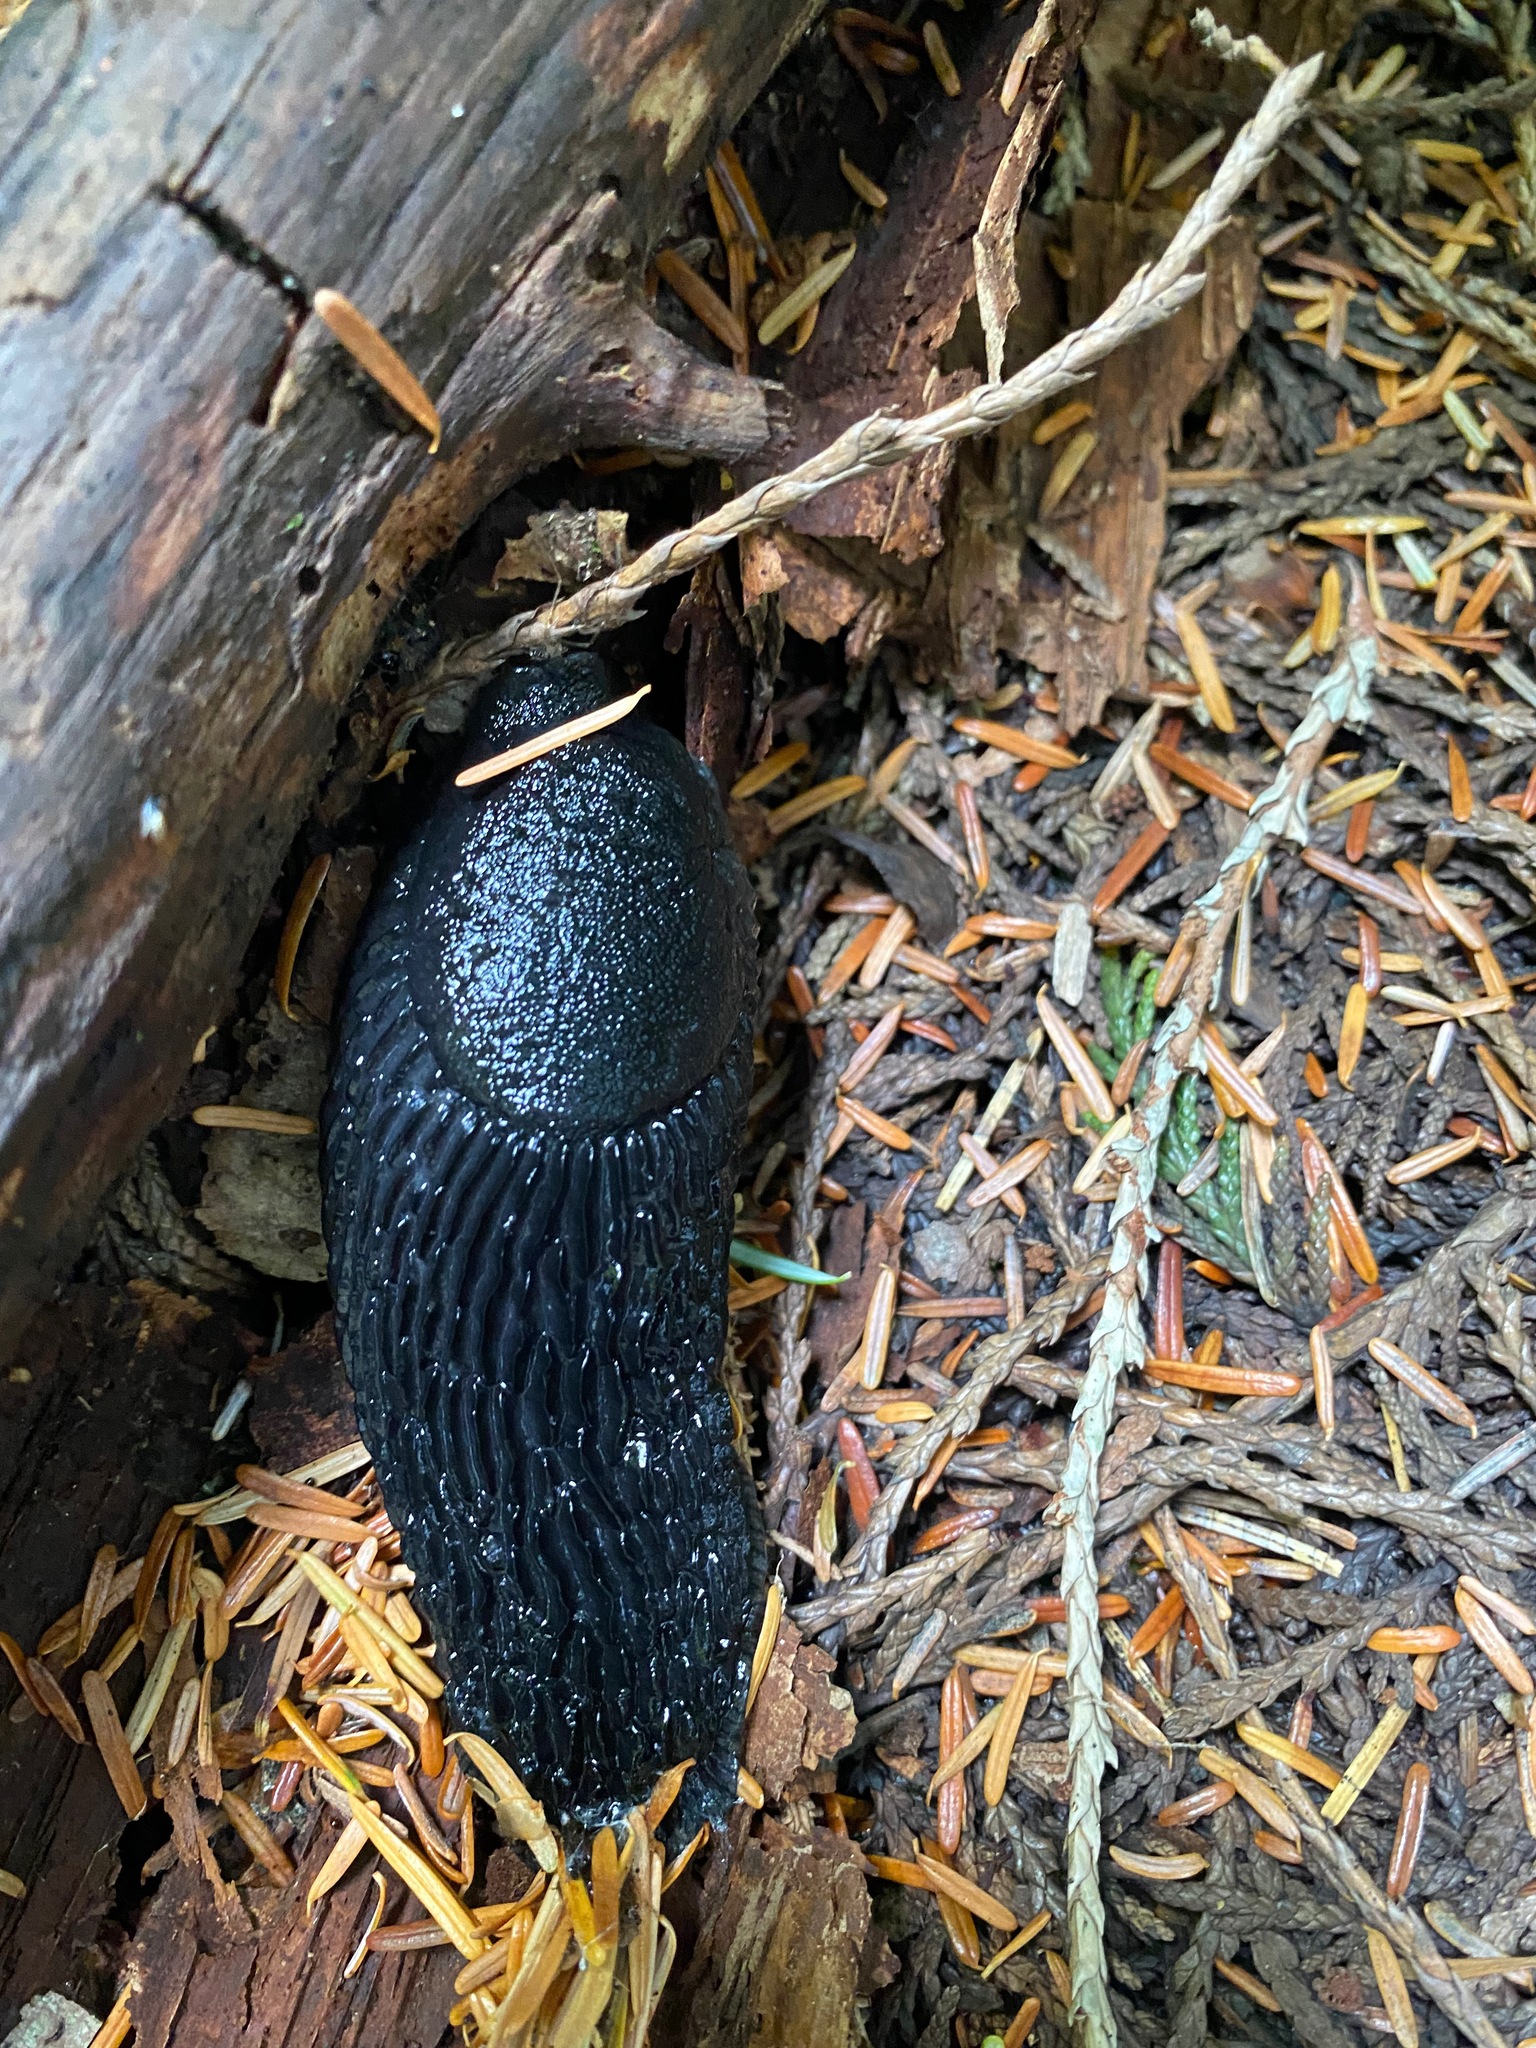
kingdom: Animalia
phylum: Mollusca
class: Gastropoda
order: Stylommatophora
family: Arionidae
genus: Arion
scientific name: Arion
